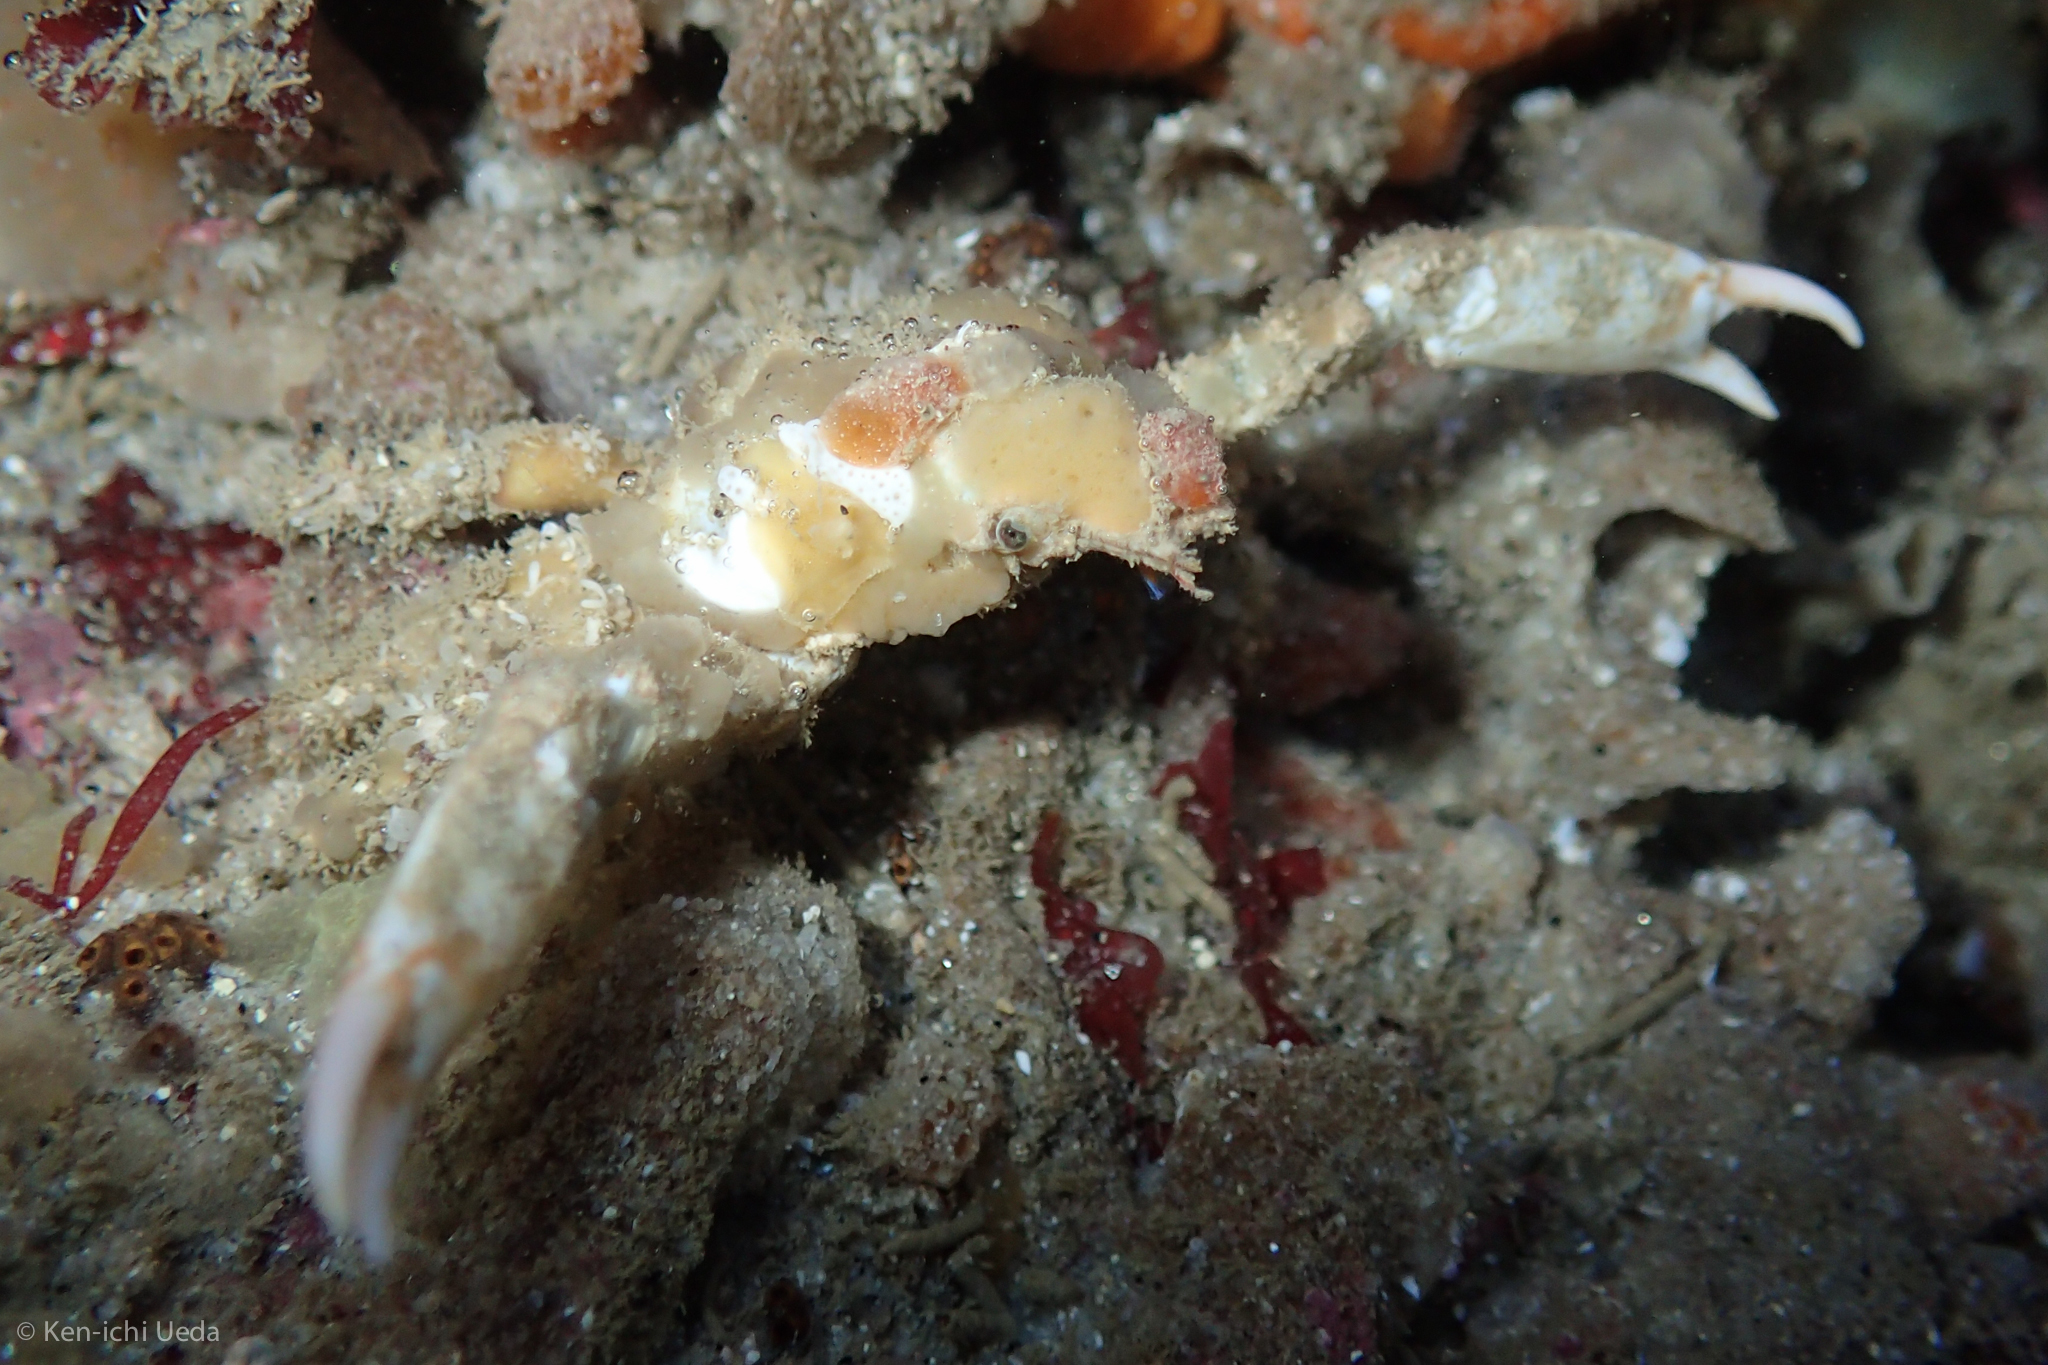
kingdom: Animalia
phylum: Arthropoda
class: Malacostraca
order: Decapoda
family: Epialtidae
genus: Scyra
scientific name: Scyra acutifrons
